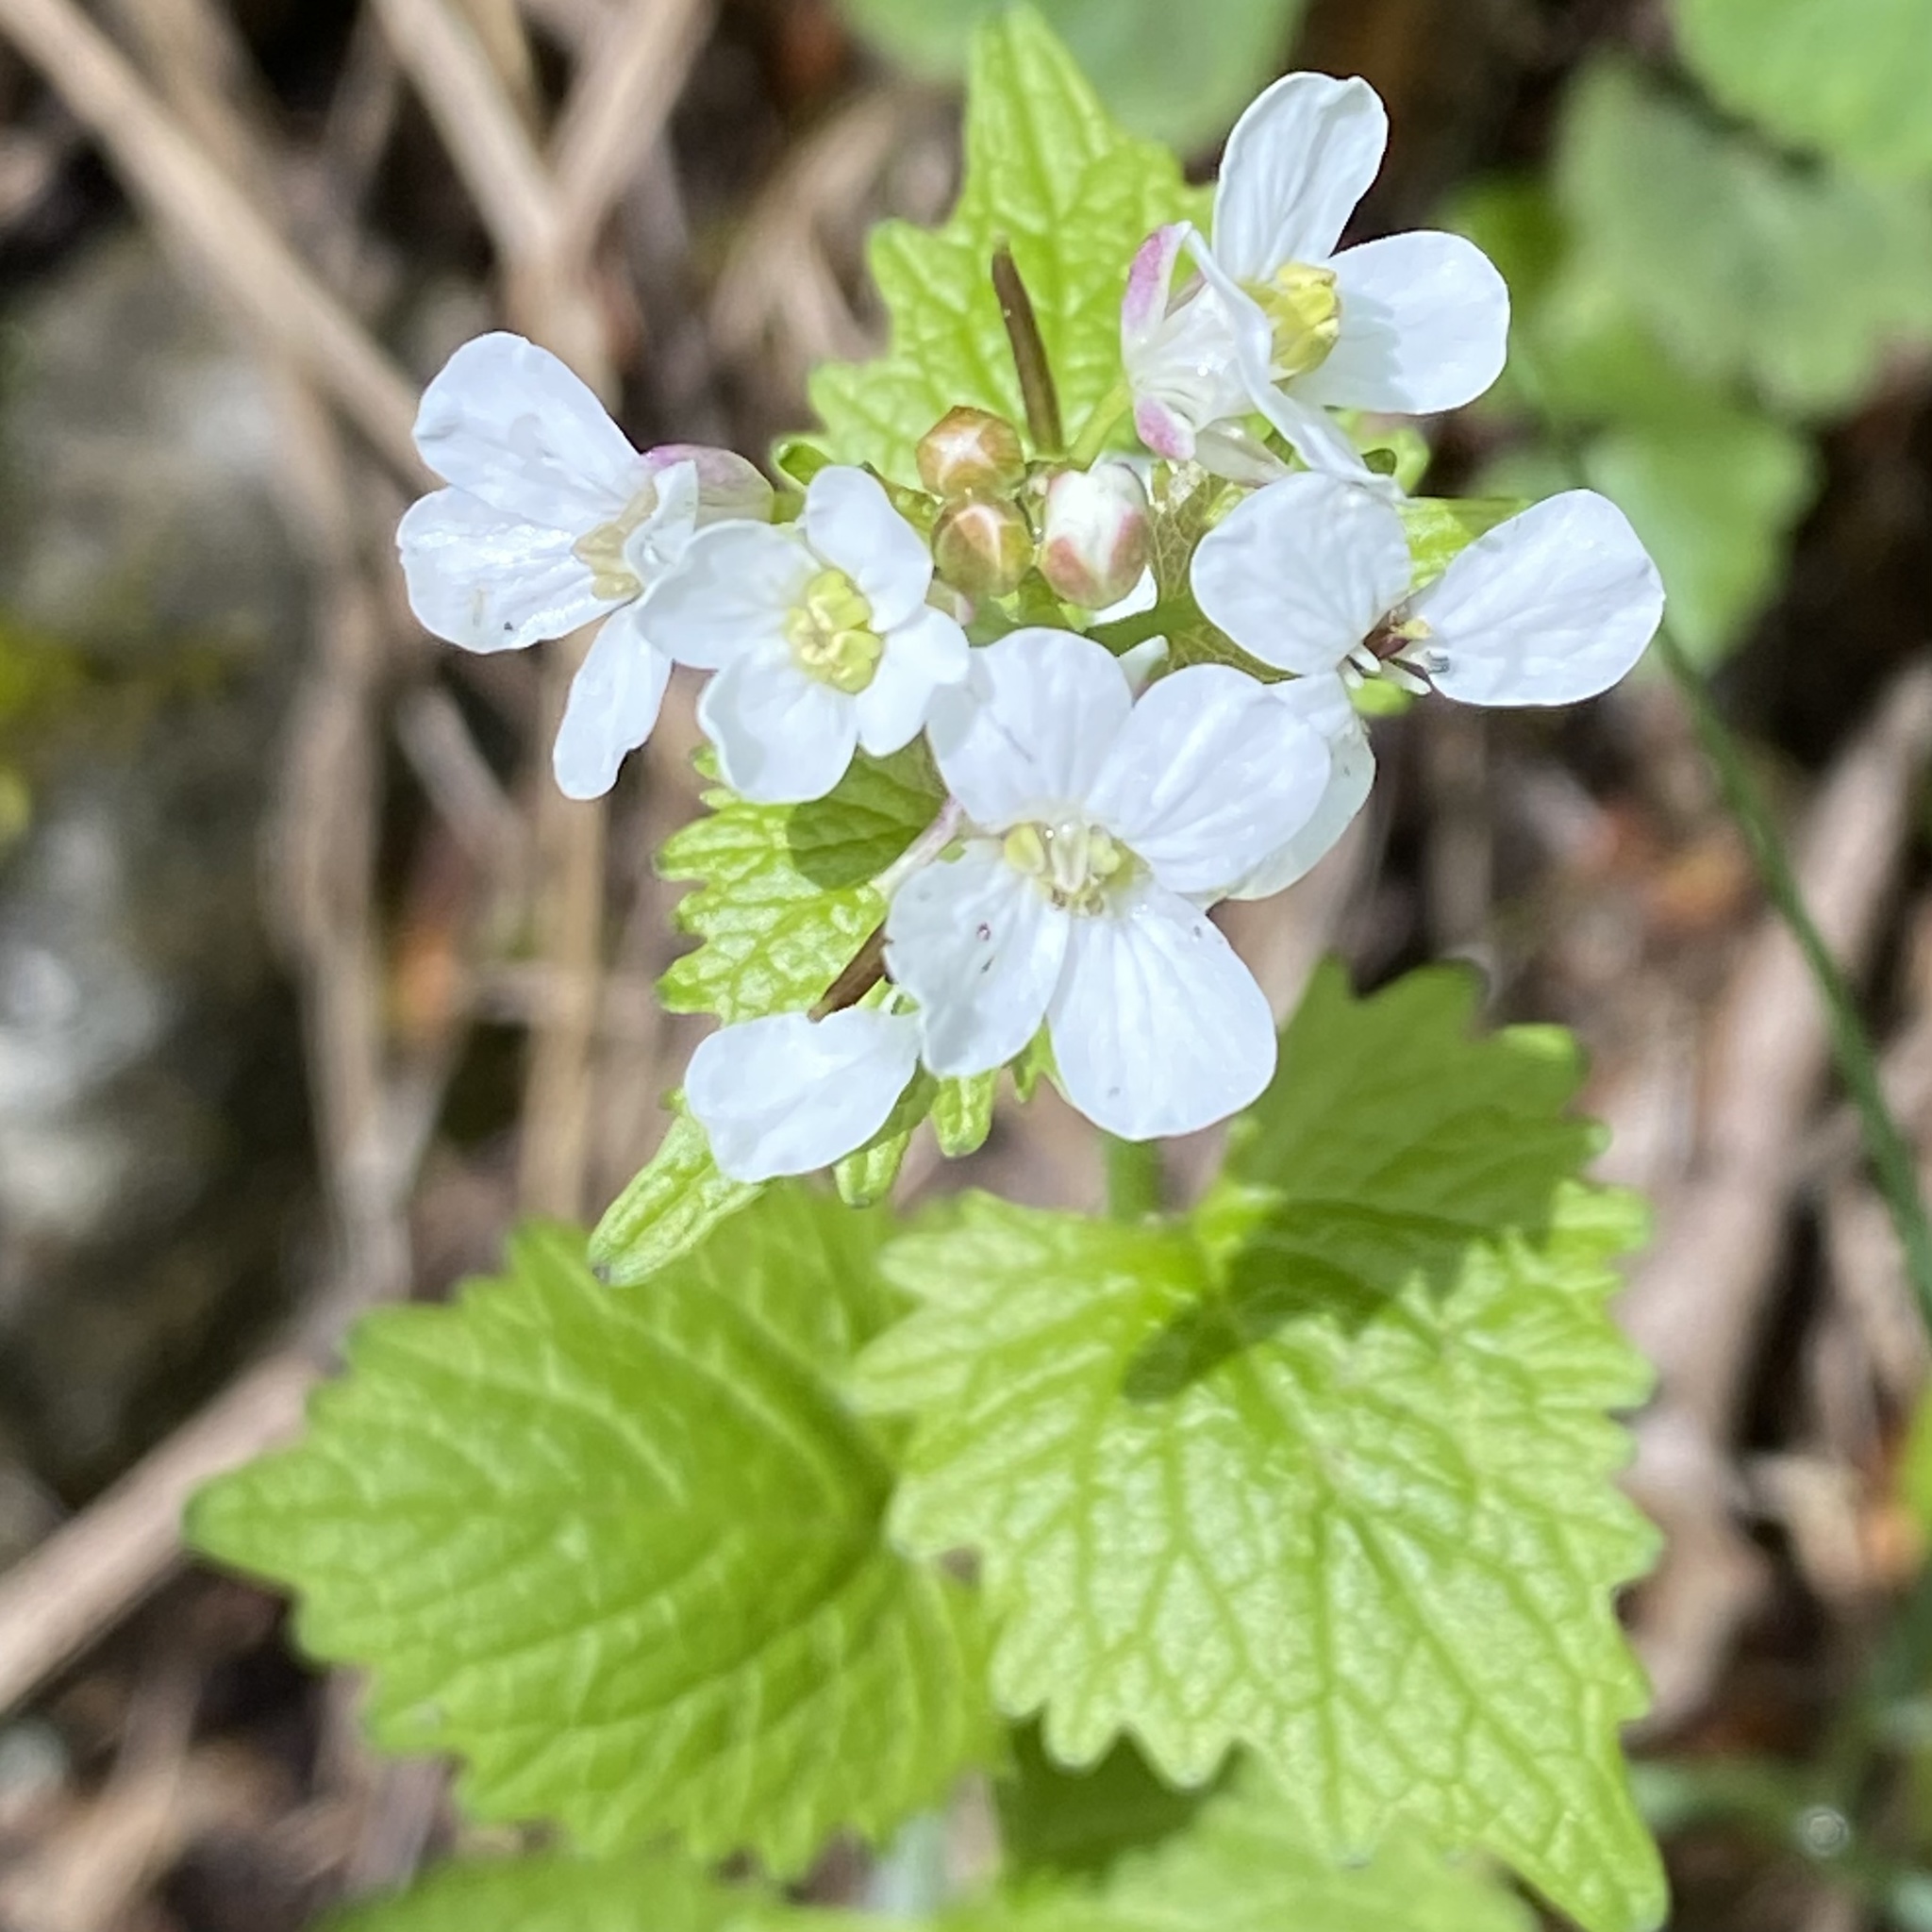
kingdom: Plantae
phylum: Tracheophyta
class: Magnoliopsida
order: Brassicales
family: Brassicaceae
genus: Alliaria
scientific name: Alliaria petiolata
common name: Garlic mustard
